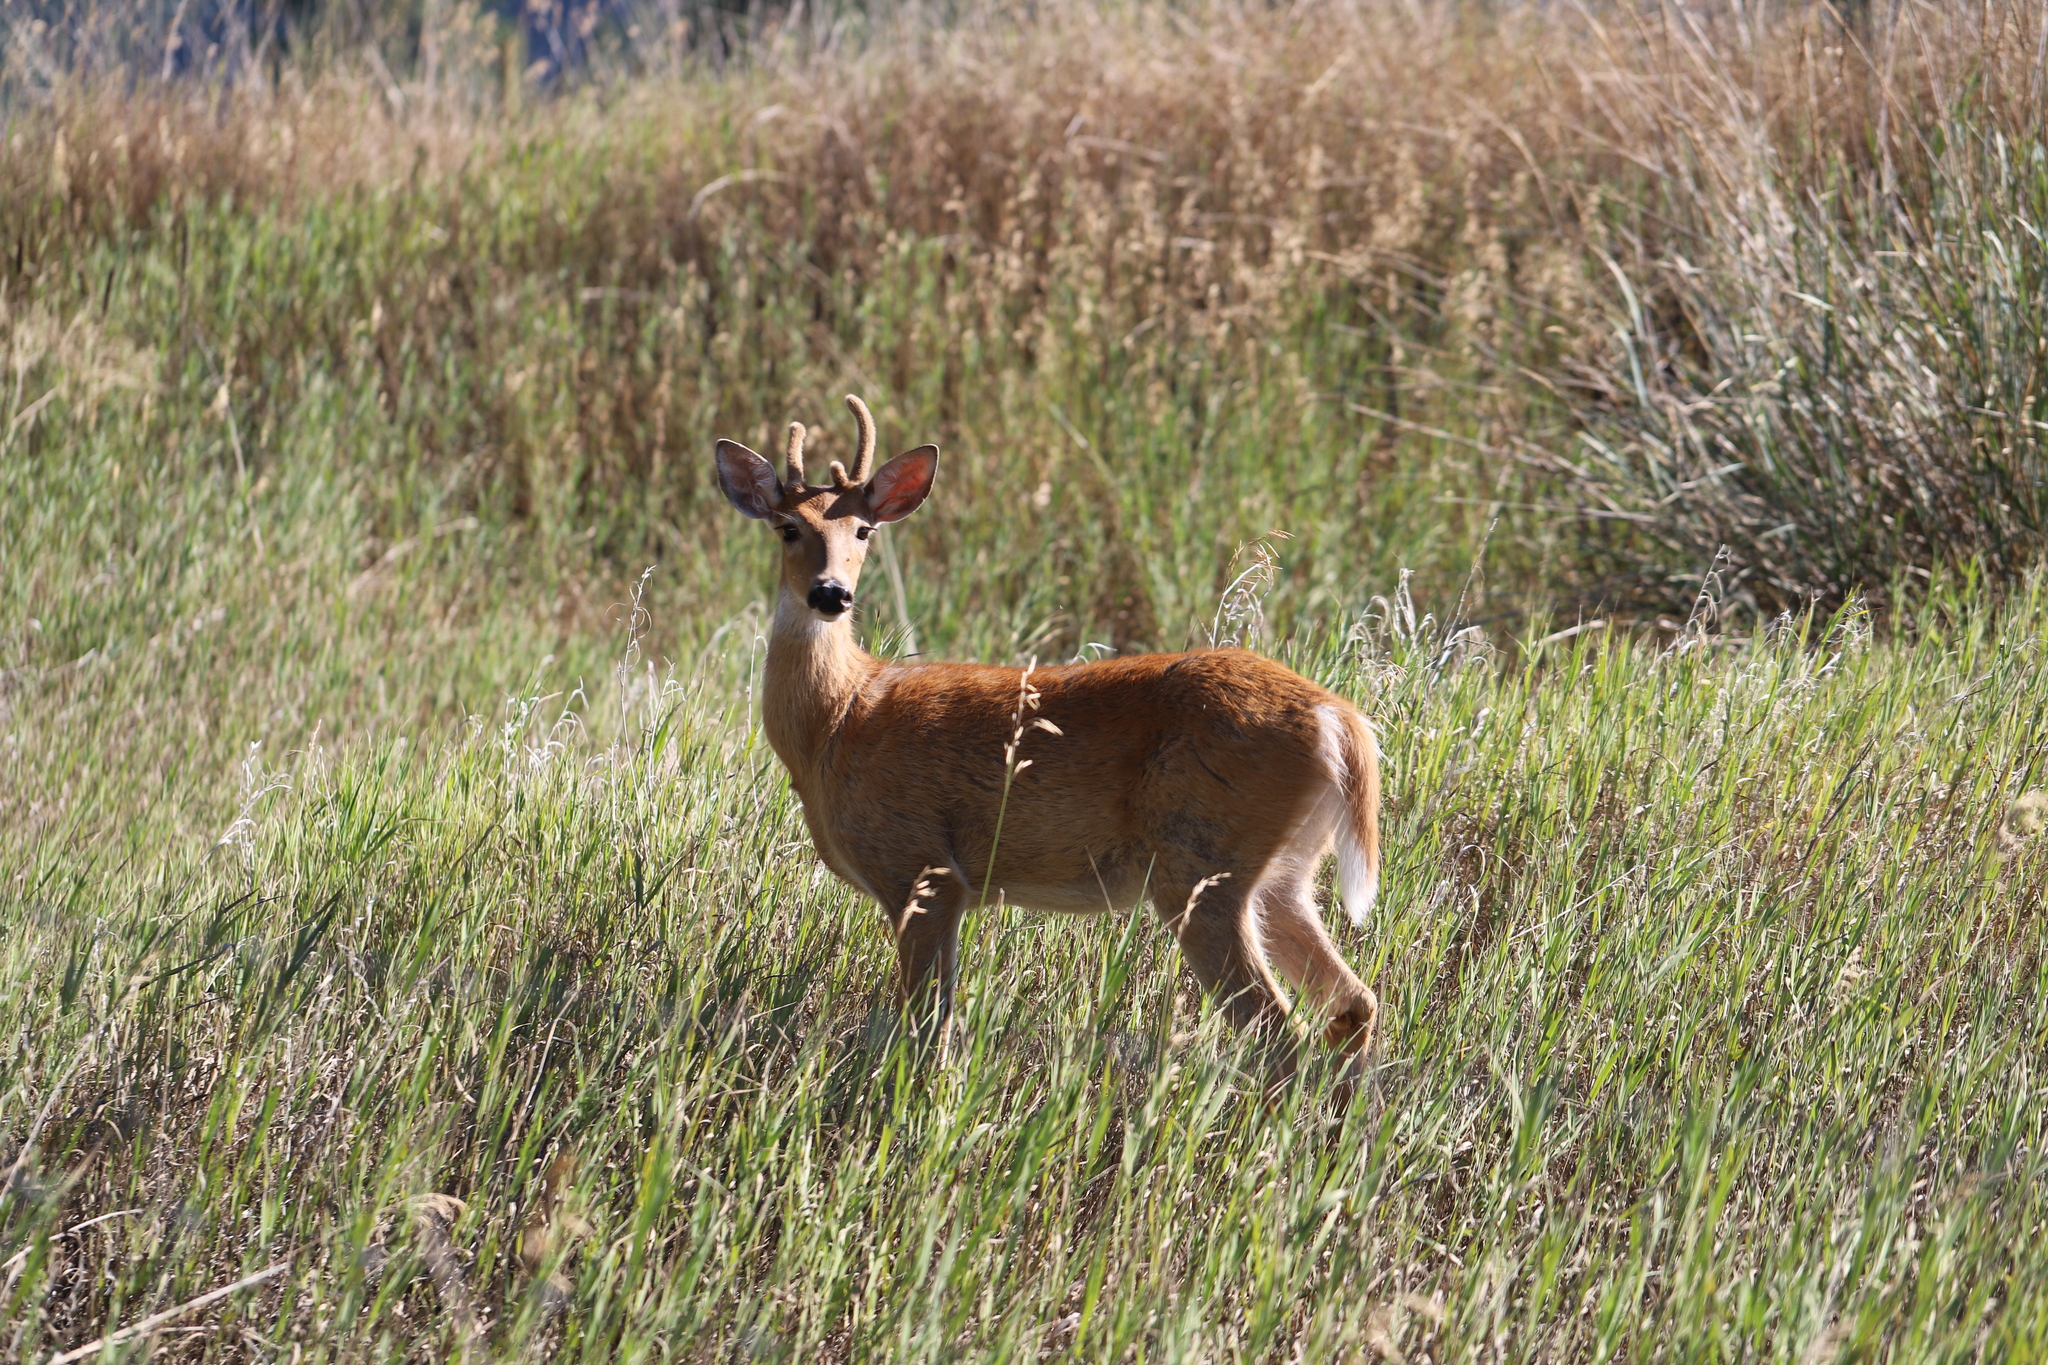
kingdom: Animalia
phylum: Chordata
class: Mammalia
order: Artiodactyla
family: Cervidae
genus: Odocoileus
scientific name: Odocoileus virginianus
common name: White-tailed deer
